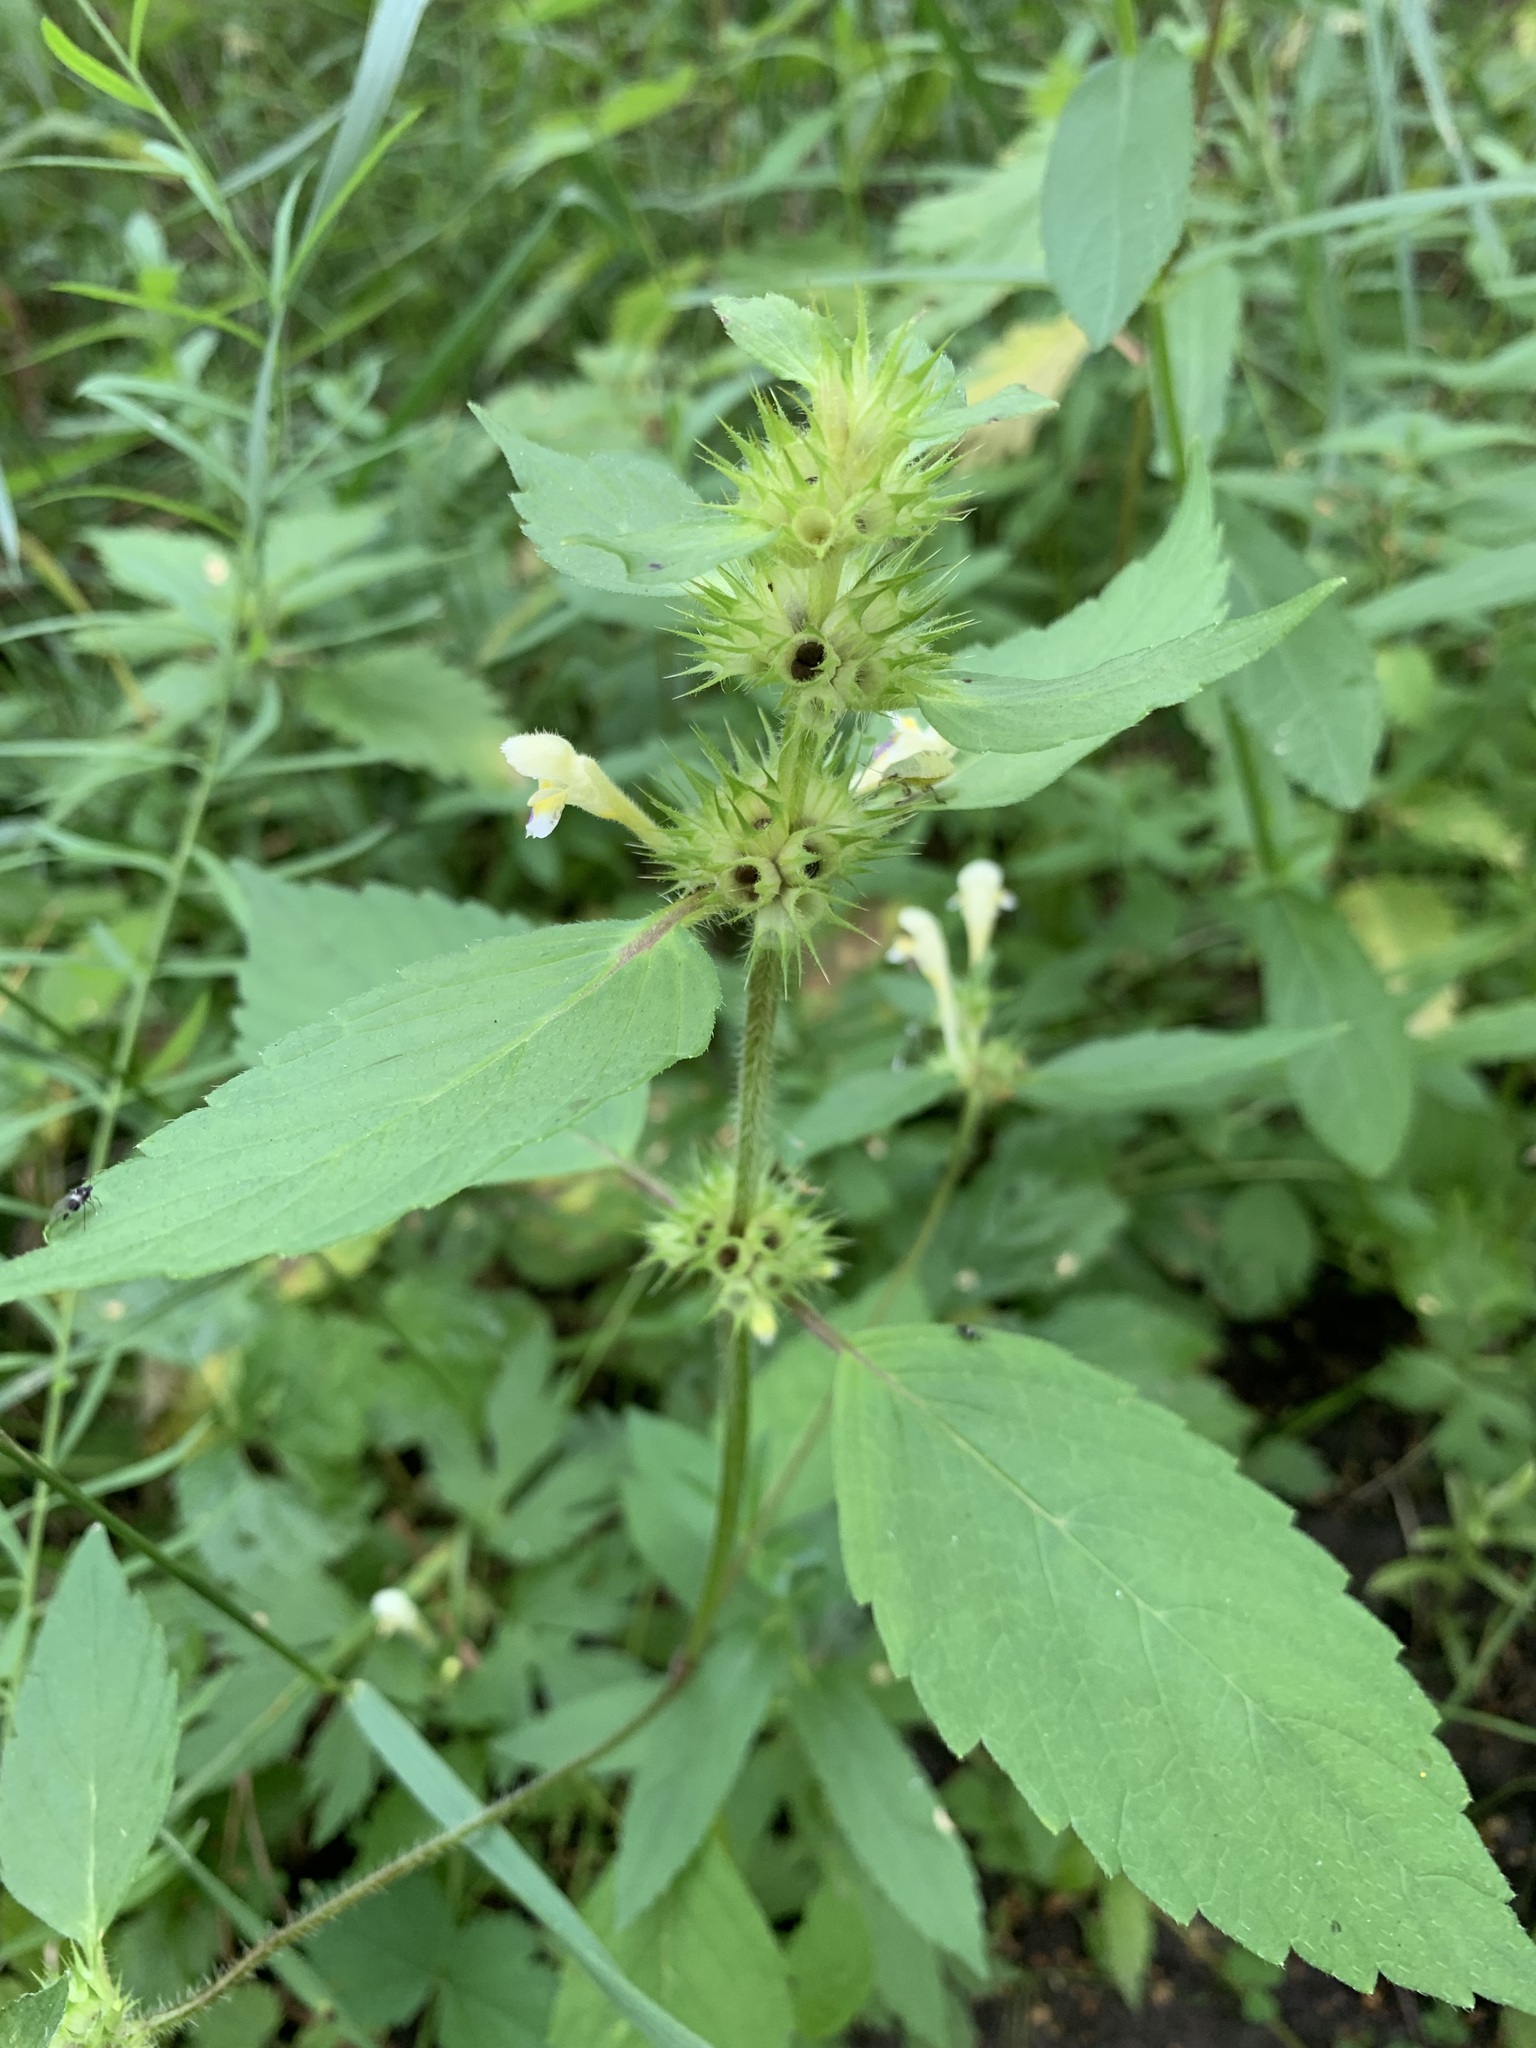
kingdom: Plantae
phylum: Tracheophyta
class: Magnoliopsida
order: Lamiales
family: Lamiaceae
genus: Galeopsis
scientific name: Galeopsis speciosa
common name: Large-flowered hemp-nettle
